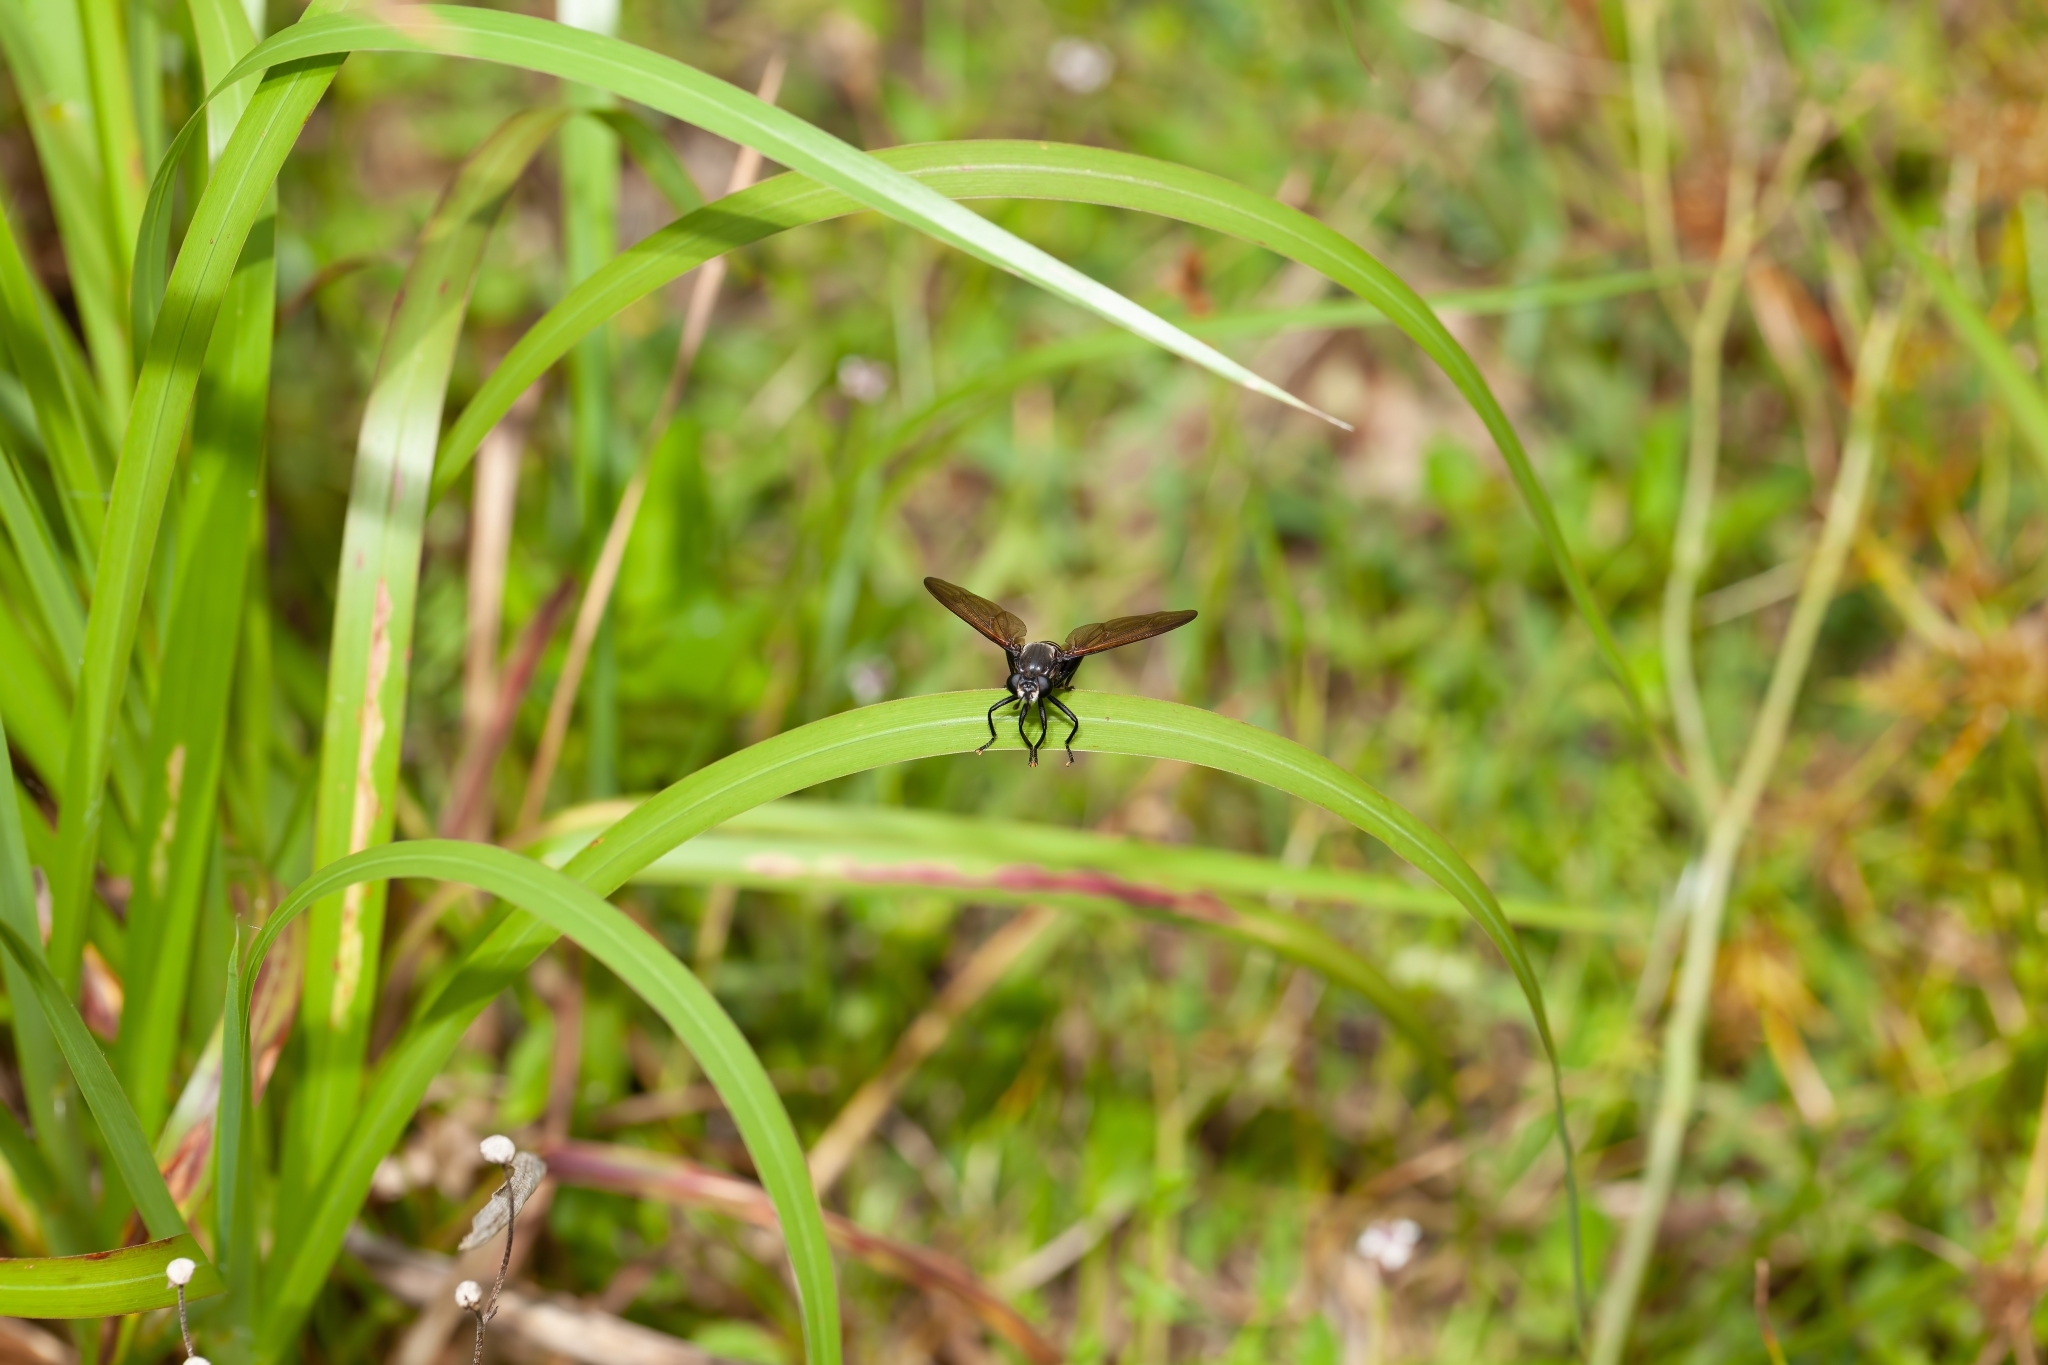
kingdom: Animalia
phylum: Arthropoda
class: Insecta
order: Diptera
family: Mydidae
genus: Mydas
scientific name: Mydas maculiventris
